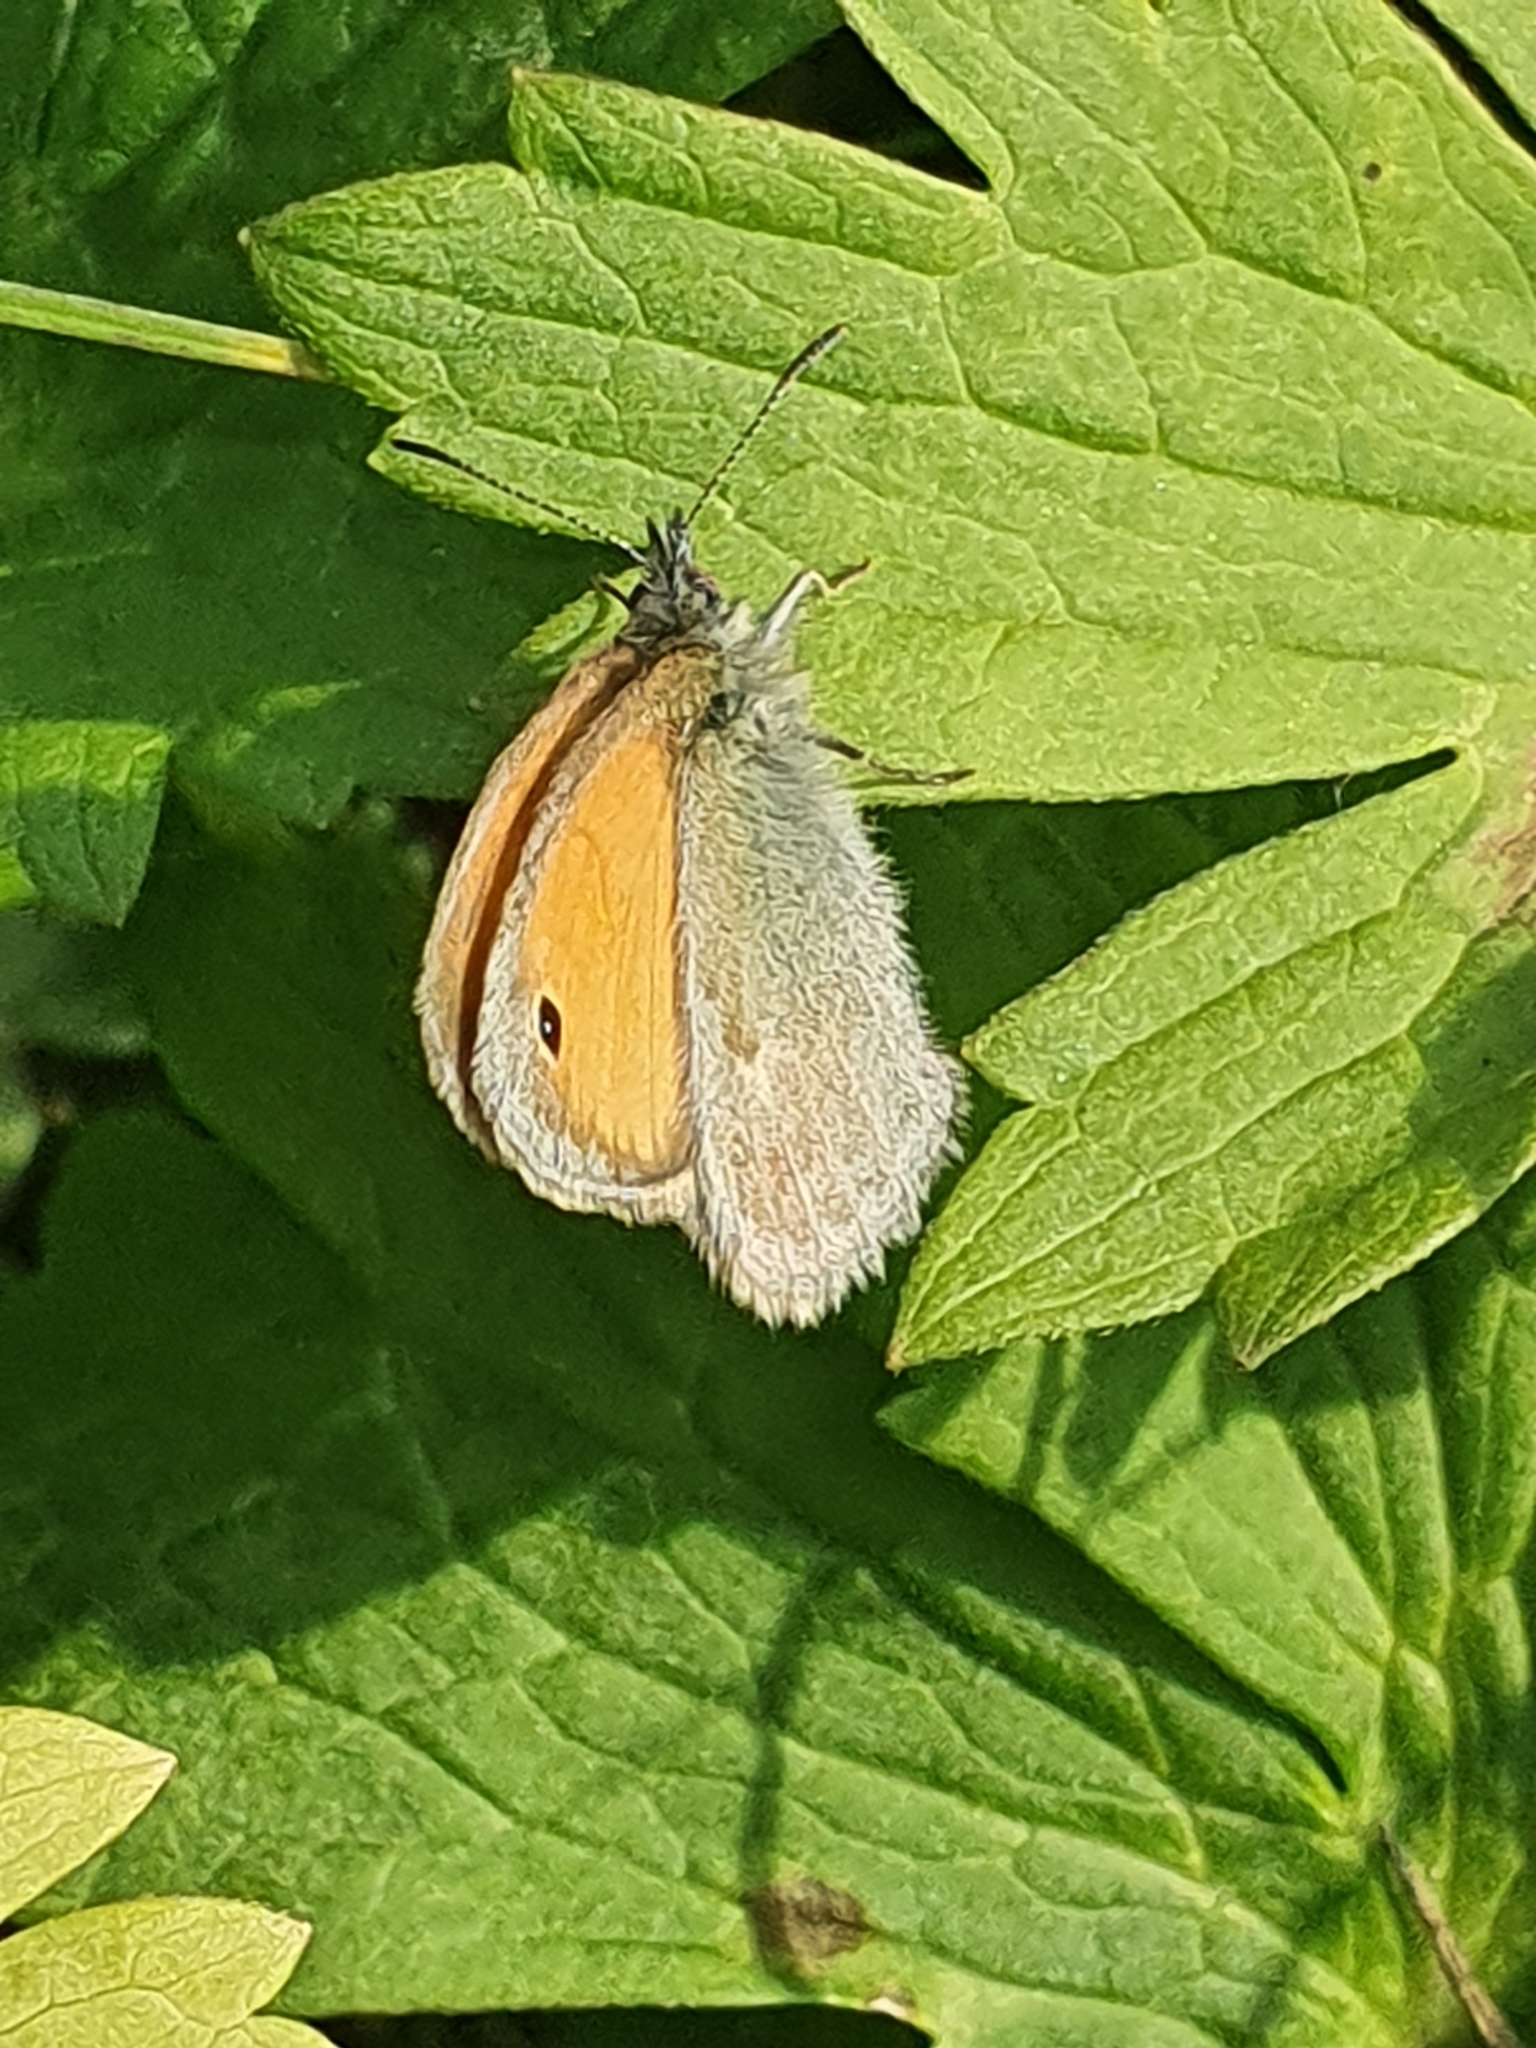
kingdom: Animalia
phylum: Arthropoda
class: Insecta
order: Lepidoptera
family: Nymphalidae
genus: Coenonympha
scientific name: Coenonympha pamphilus
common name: Small heath
